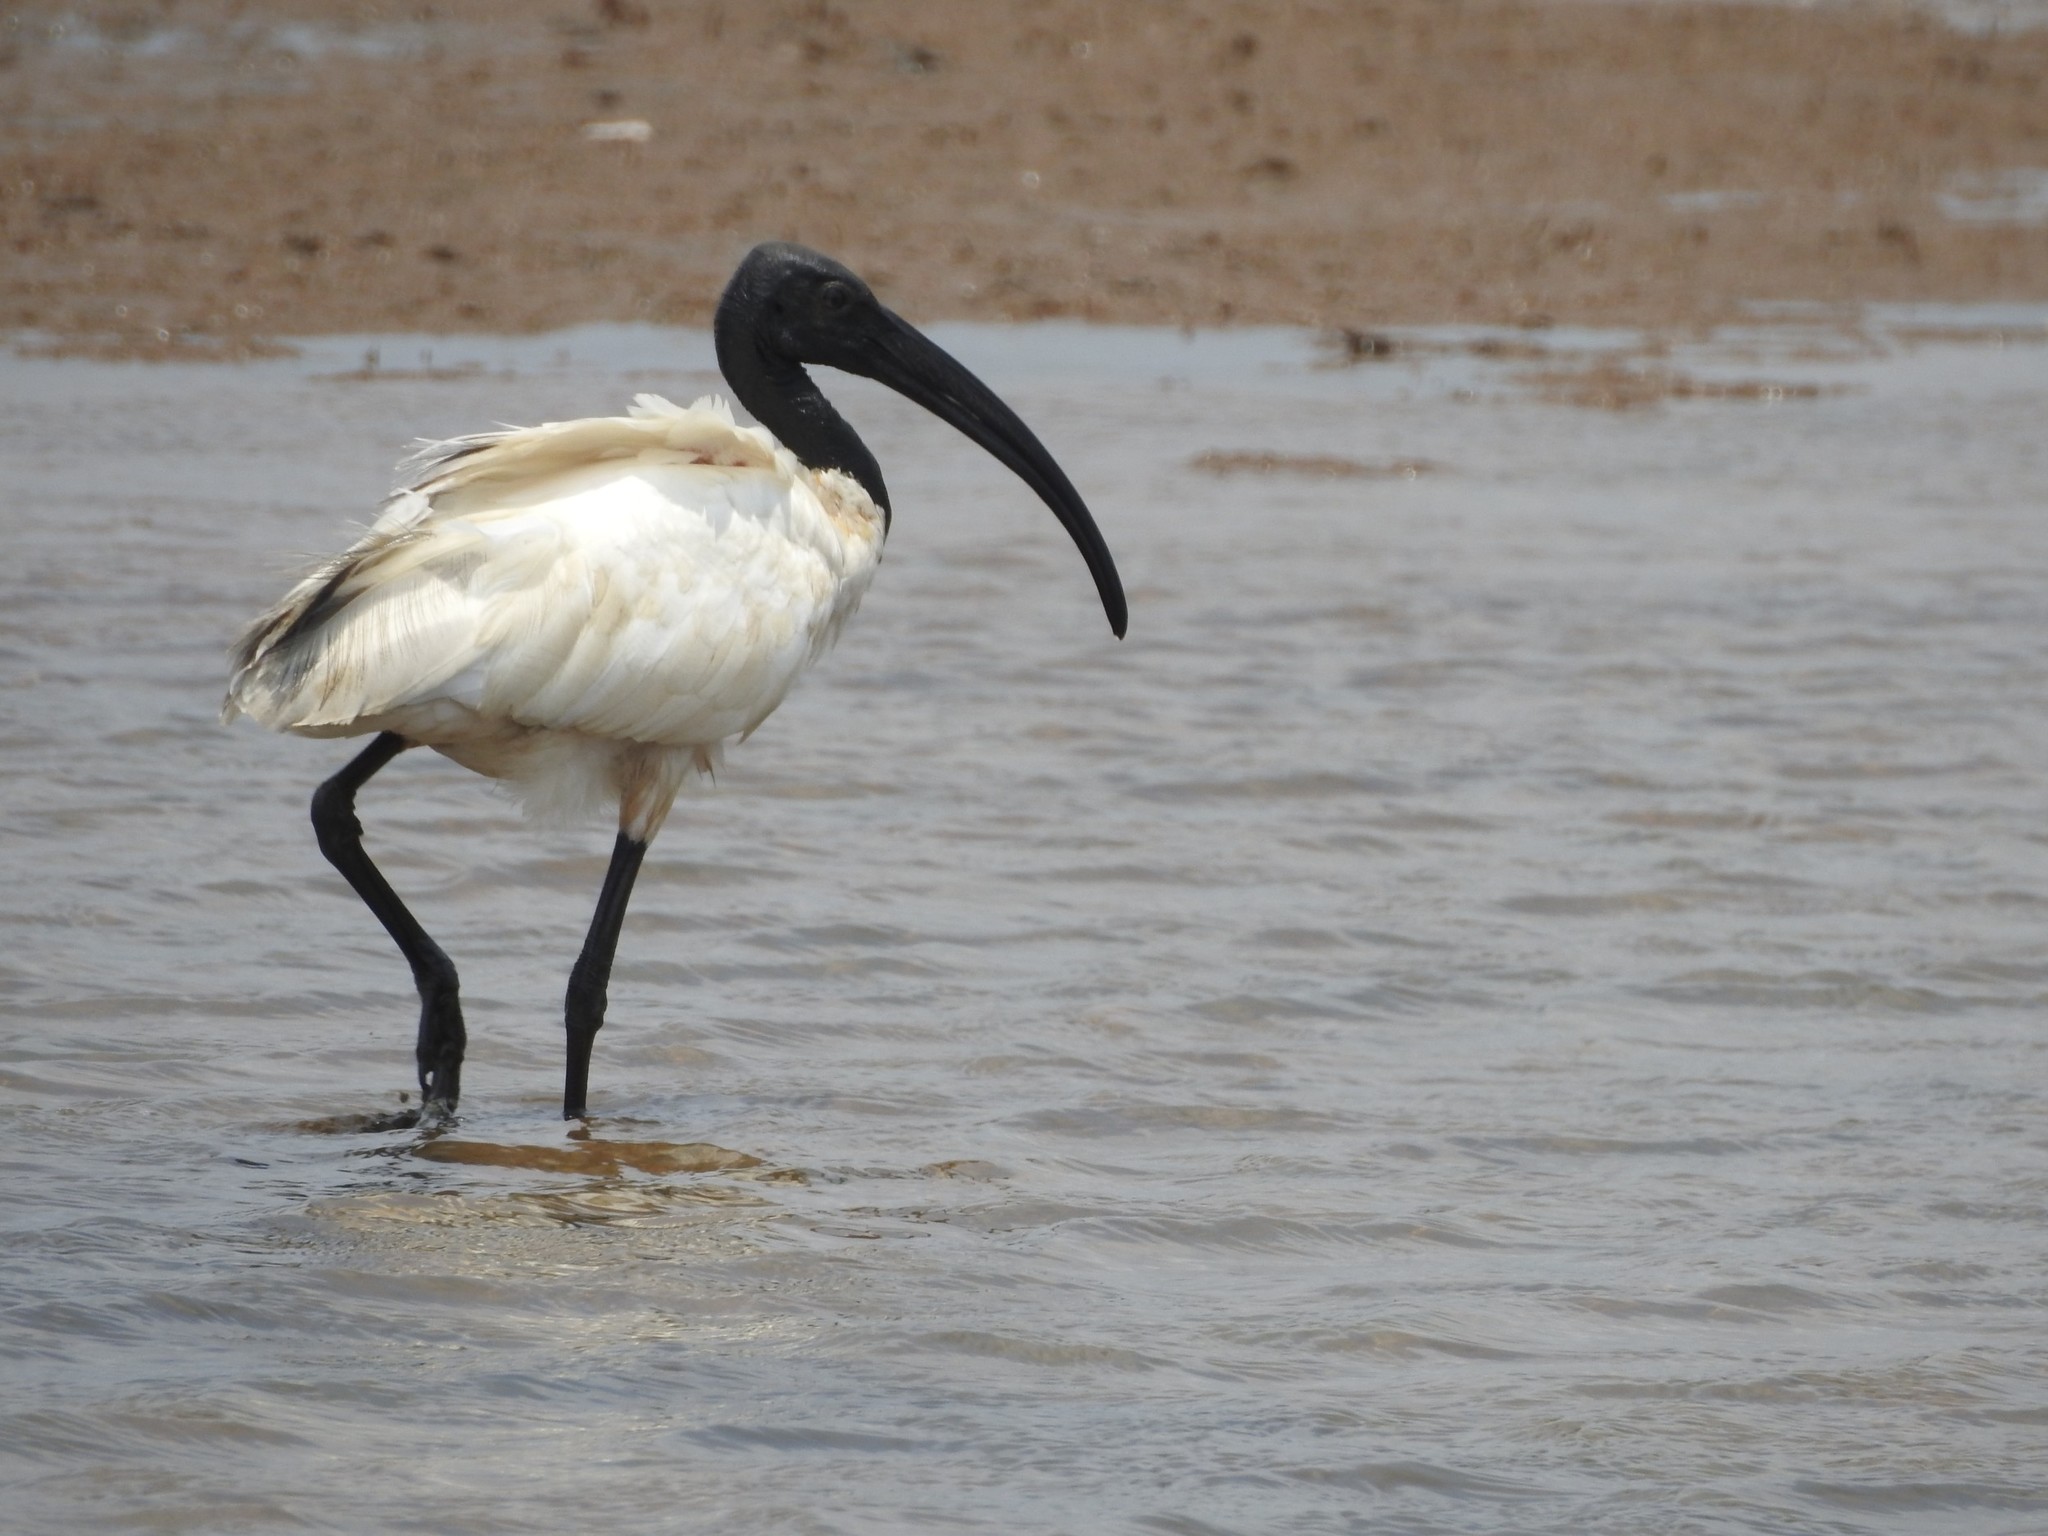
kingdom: Animalia
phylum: Chordata
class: Aves
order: Pelecaniformes
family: Threskiornithidae
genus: Threskiornis
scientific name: Threskiornis melanocephalus
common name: Black-headed ibis
